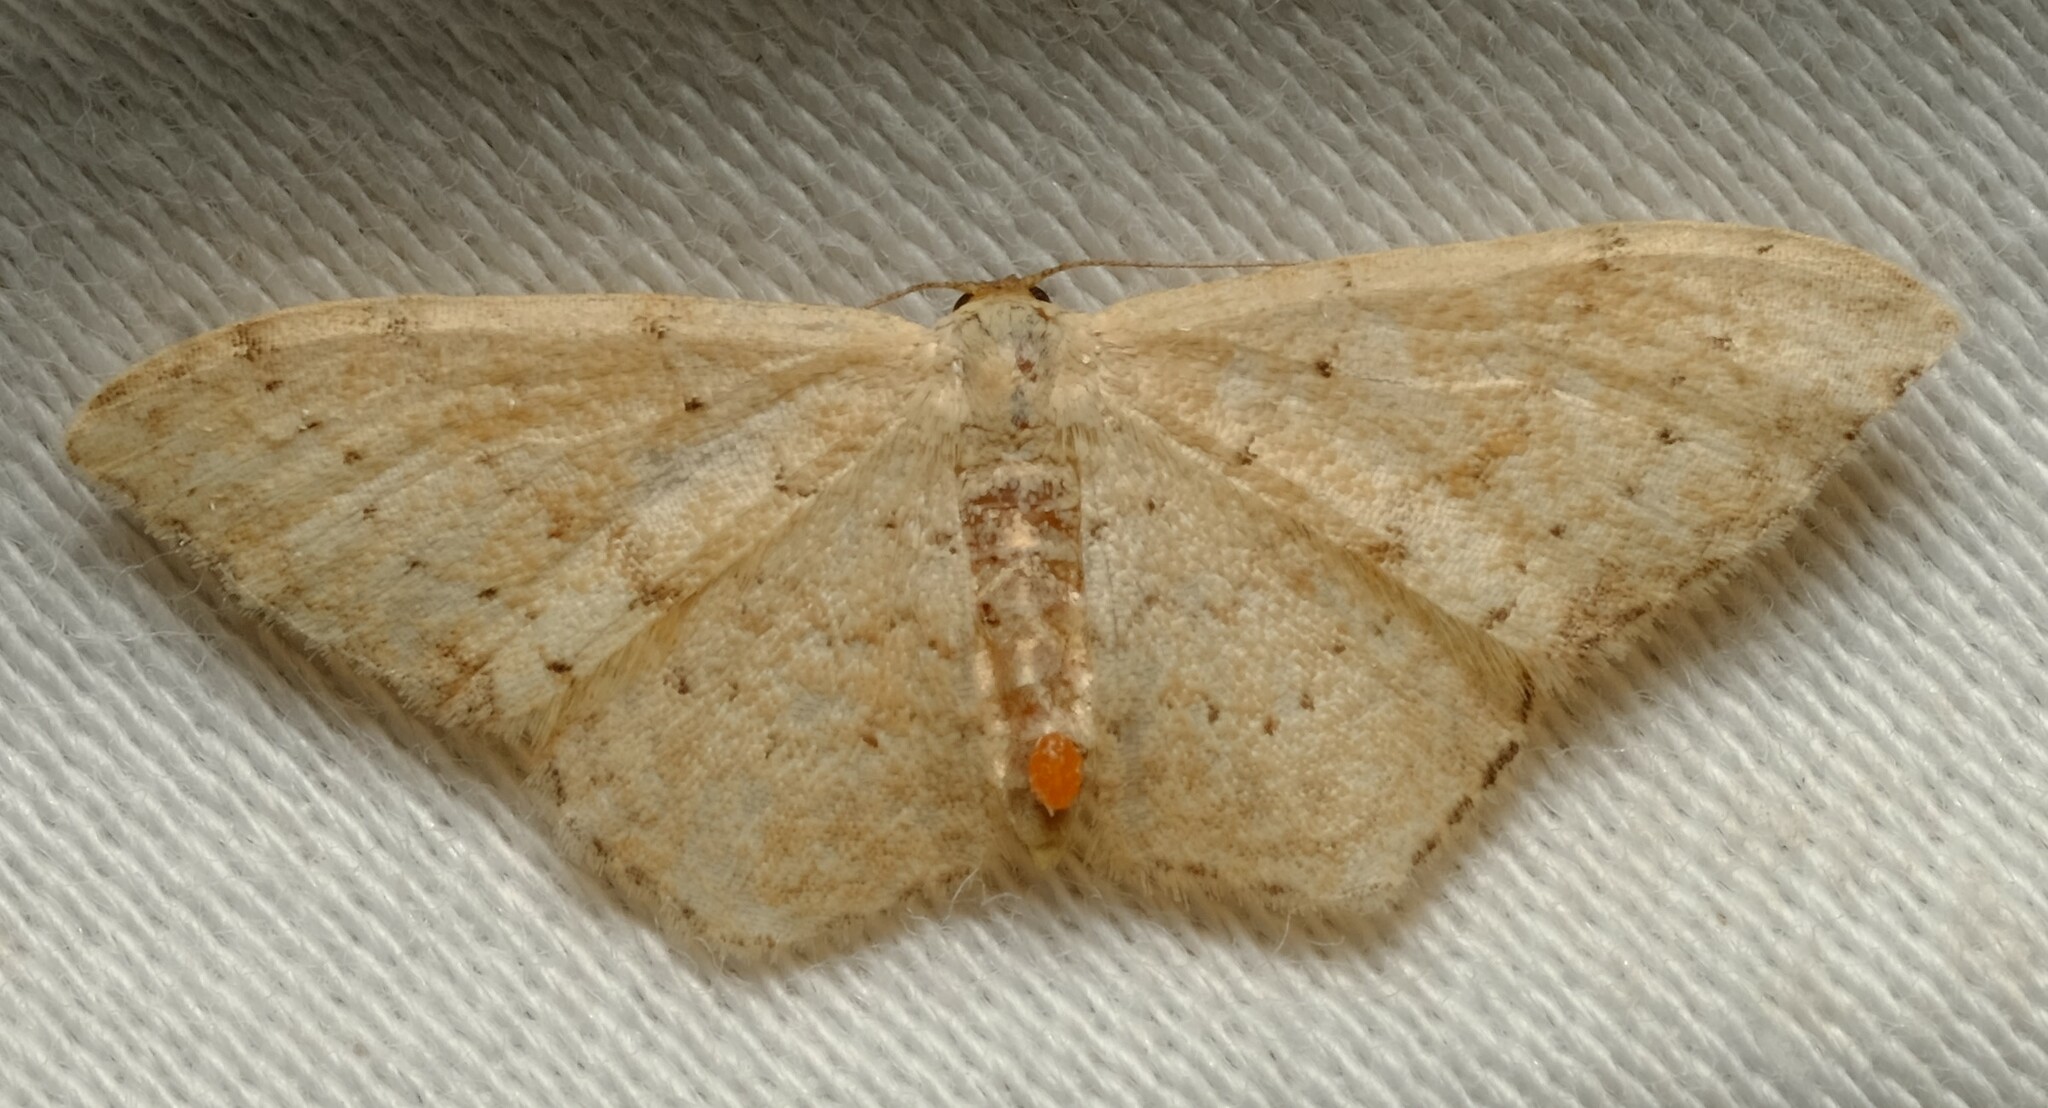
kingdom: Animalia
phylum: Arthropoda
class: Insecta
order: Lepidoptera
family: Geometridae
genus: Idaea
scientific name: Idaea halmaea
